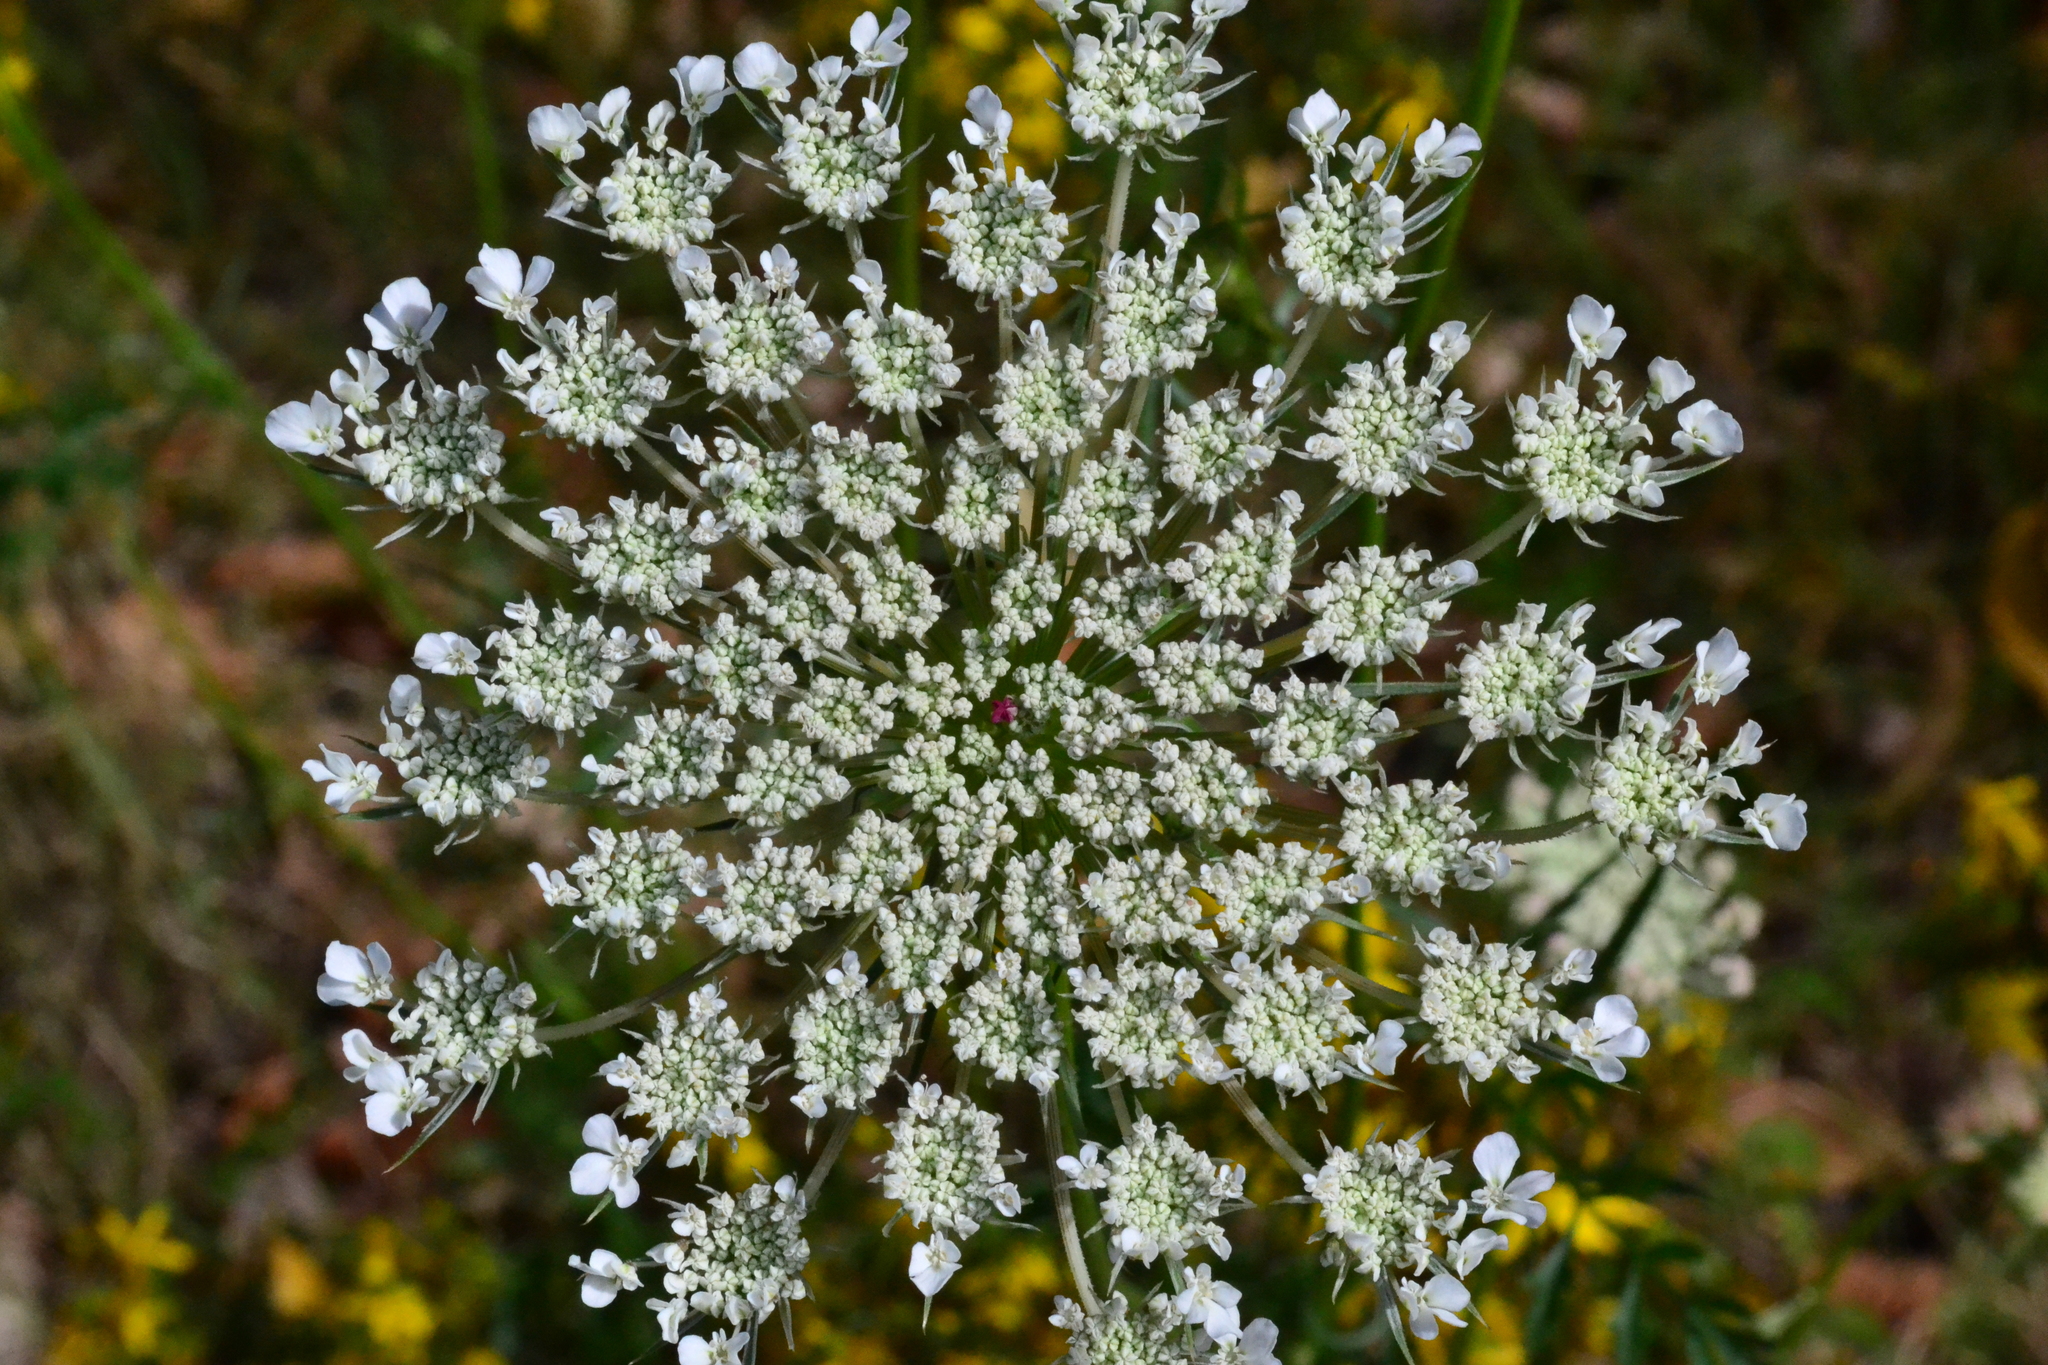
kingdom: Plantae
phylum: Tracheophyta
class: Magnoliopsida
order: Apiales
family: Apiaceae
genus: Daucus
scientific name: Daucus carota
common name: Wild carrot
